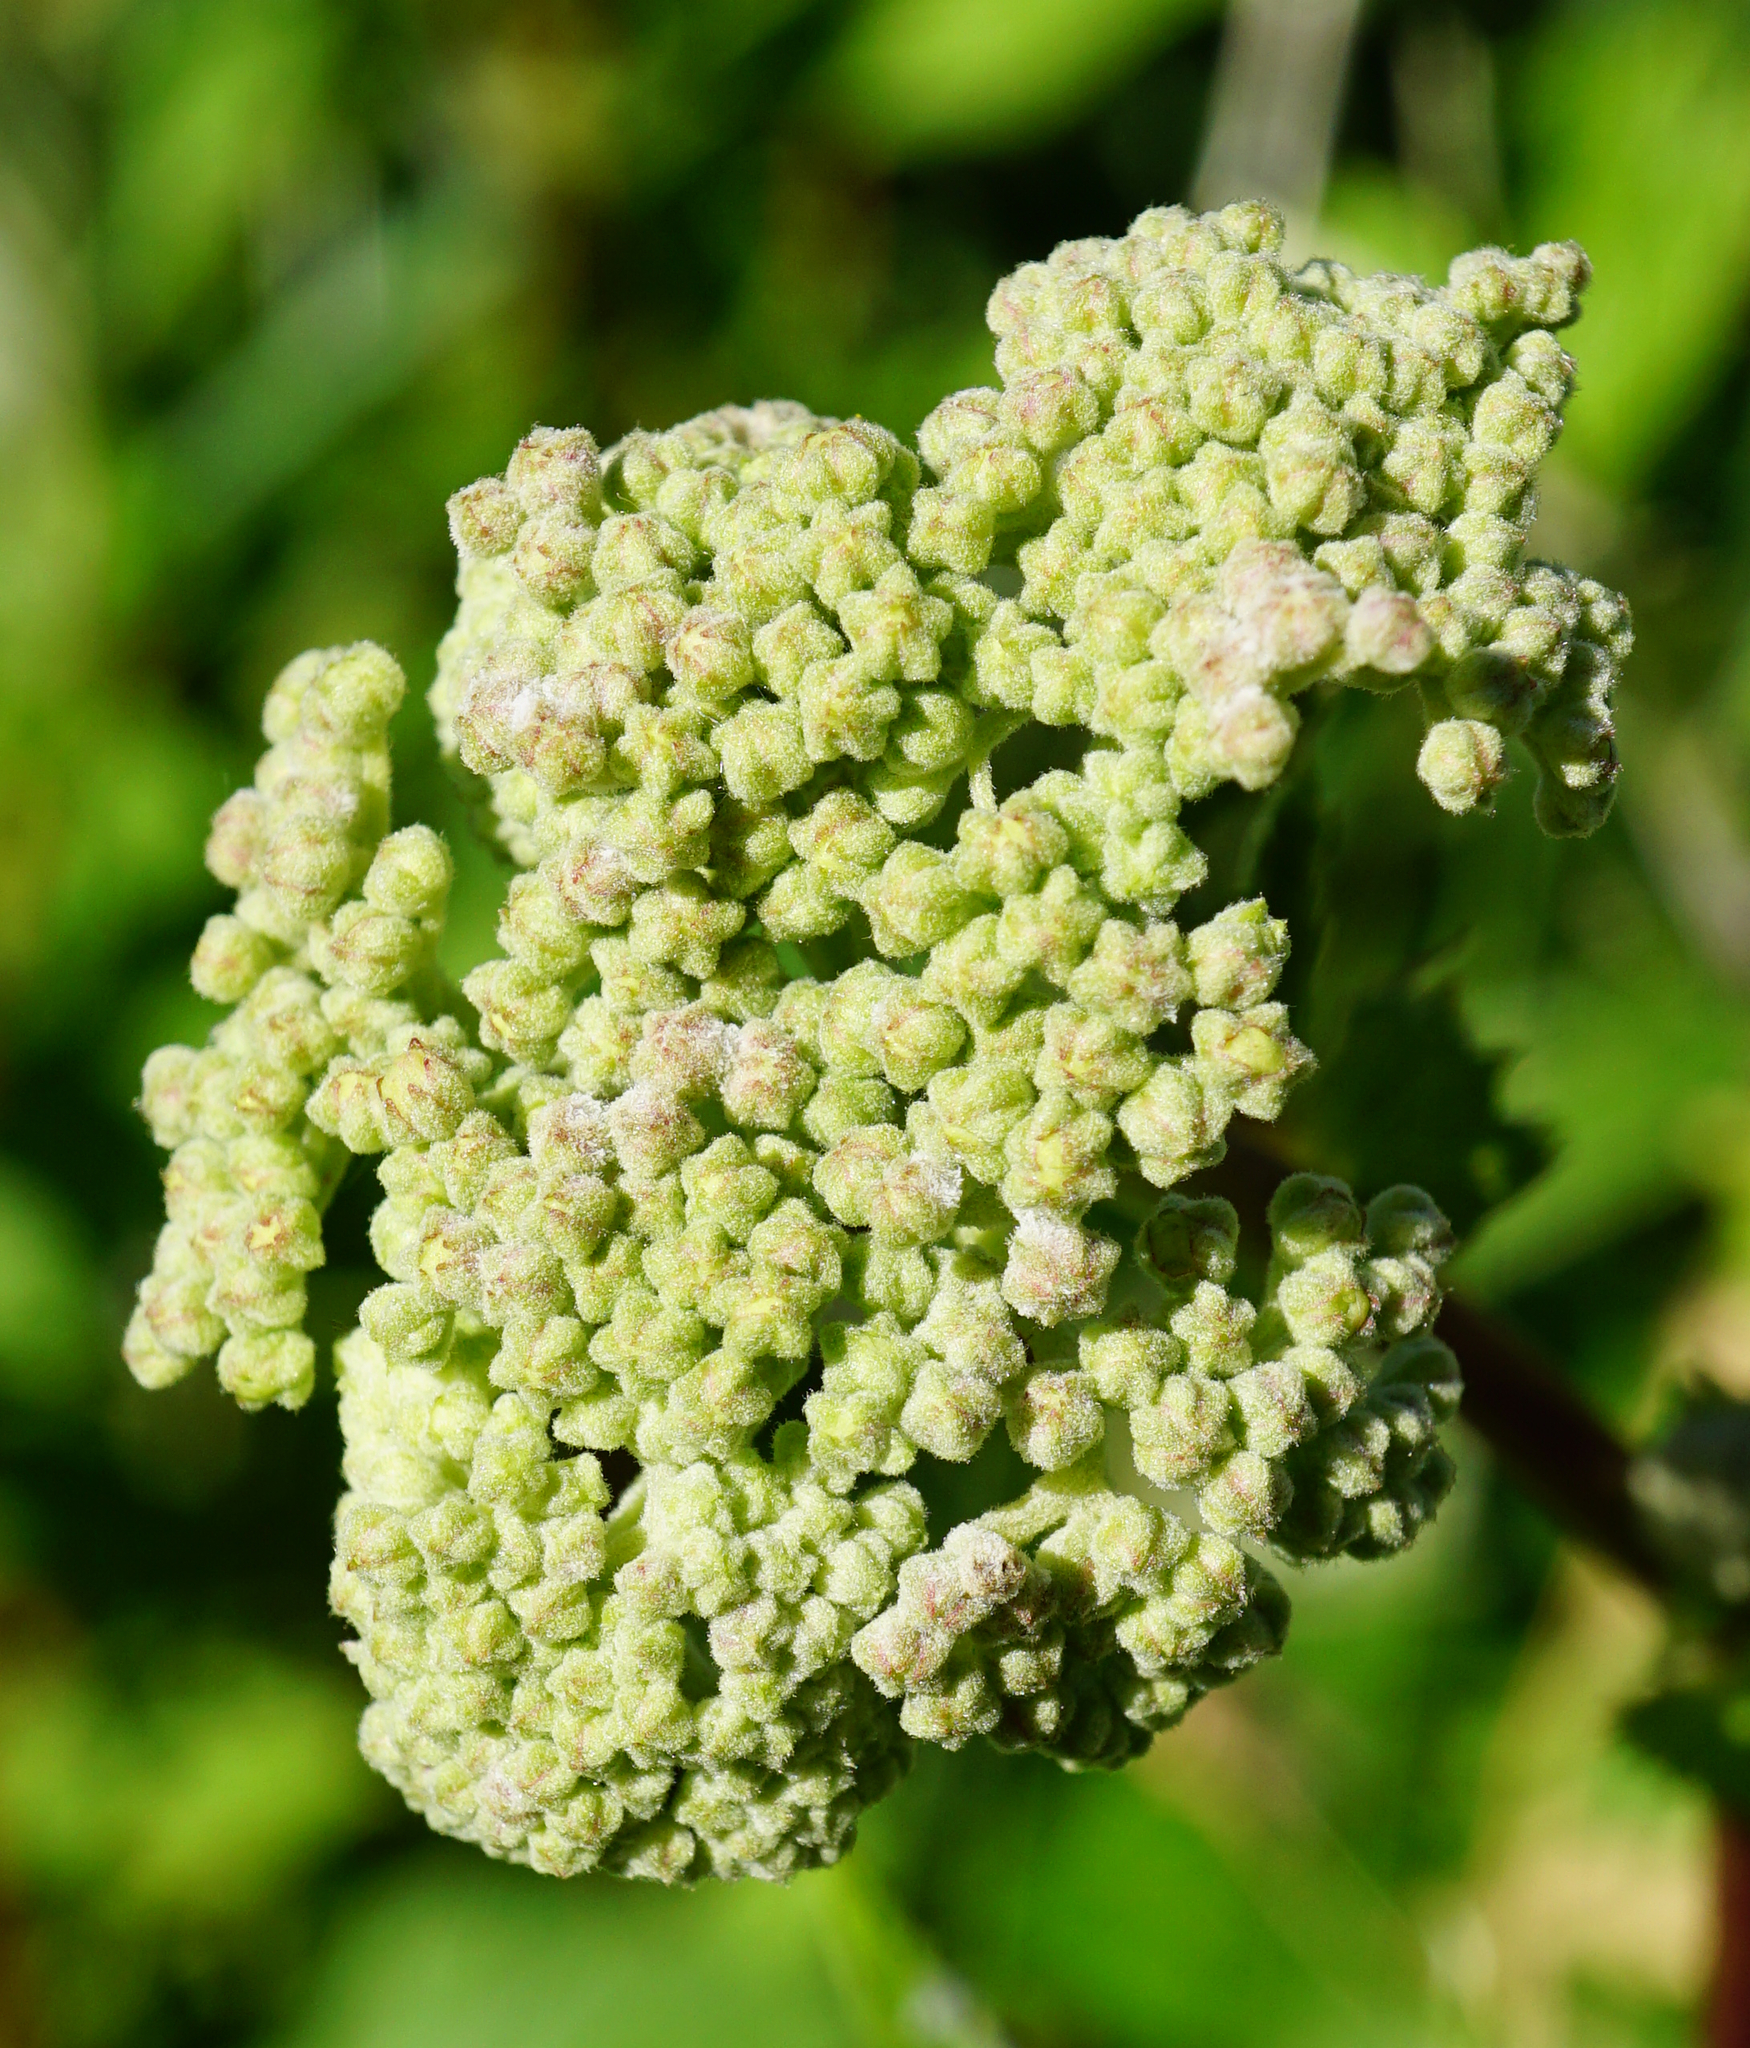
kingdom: Plantae
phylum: Tracheophyta
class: Magnoliopsida
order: Rosales
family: Rosaceae
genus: Filipendula
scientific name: Filipendula ulmaria
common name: Meadowsweet
